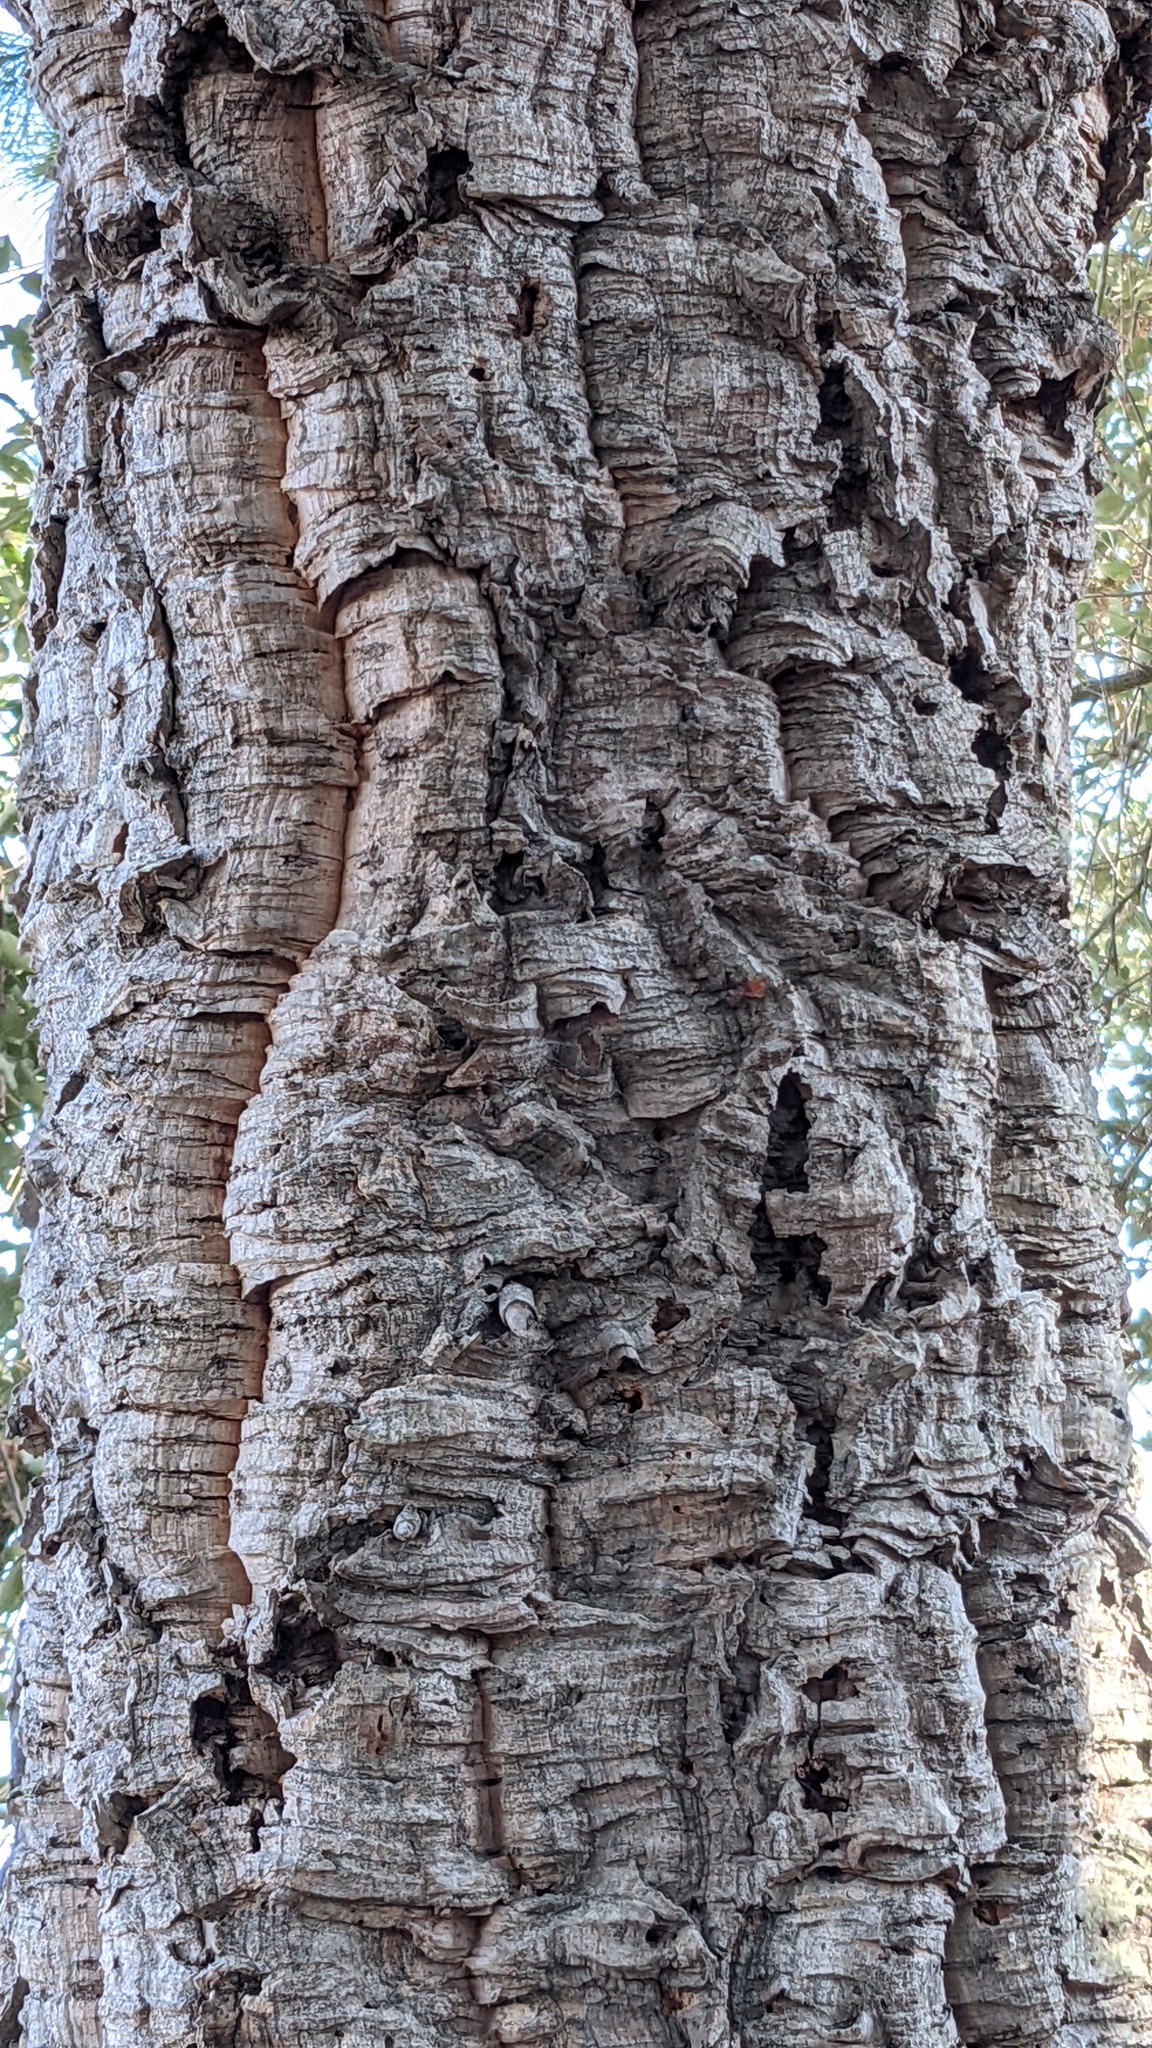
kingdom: Plantae
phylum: Tracheophyta
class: Magnoliopsida
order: Fagales
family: Fagaceae
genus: Quercus
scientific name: Quercus suber
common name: Cork oak
